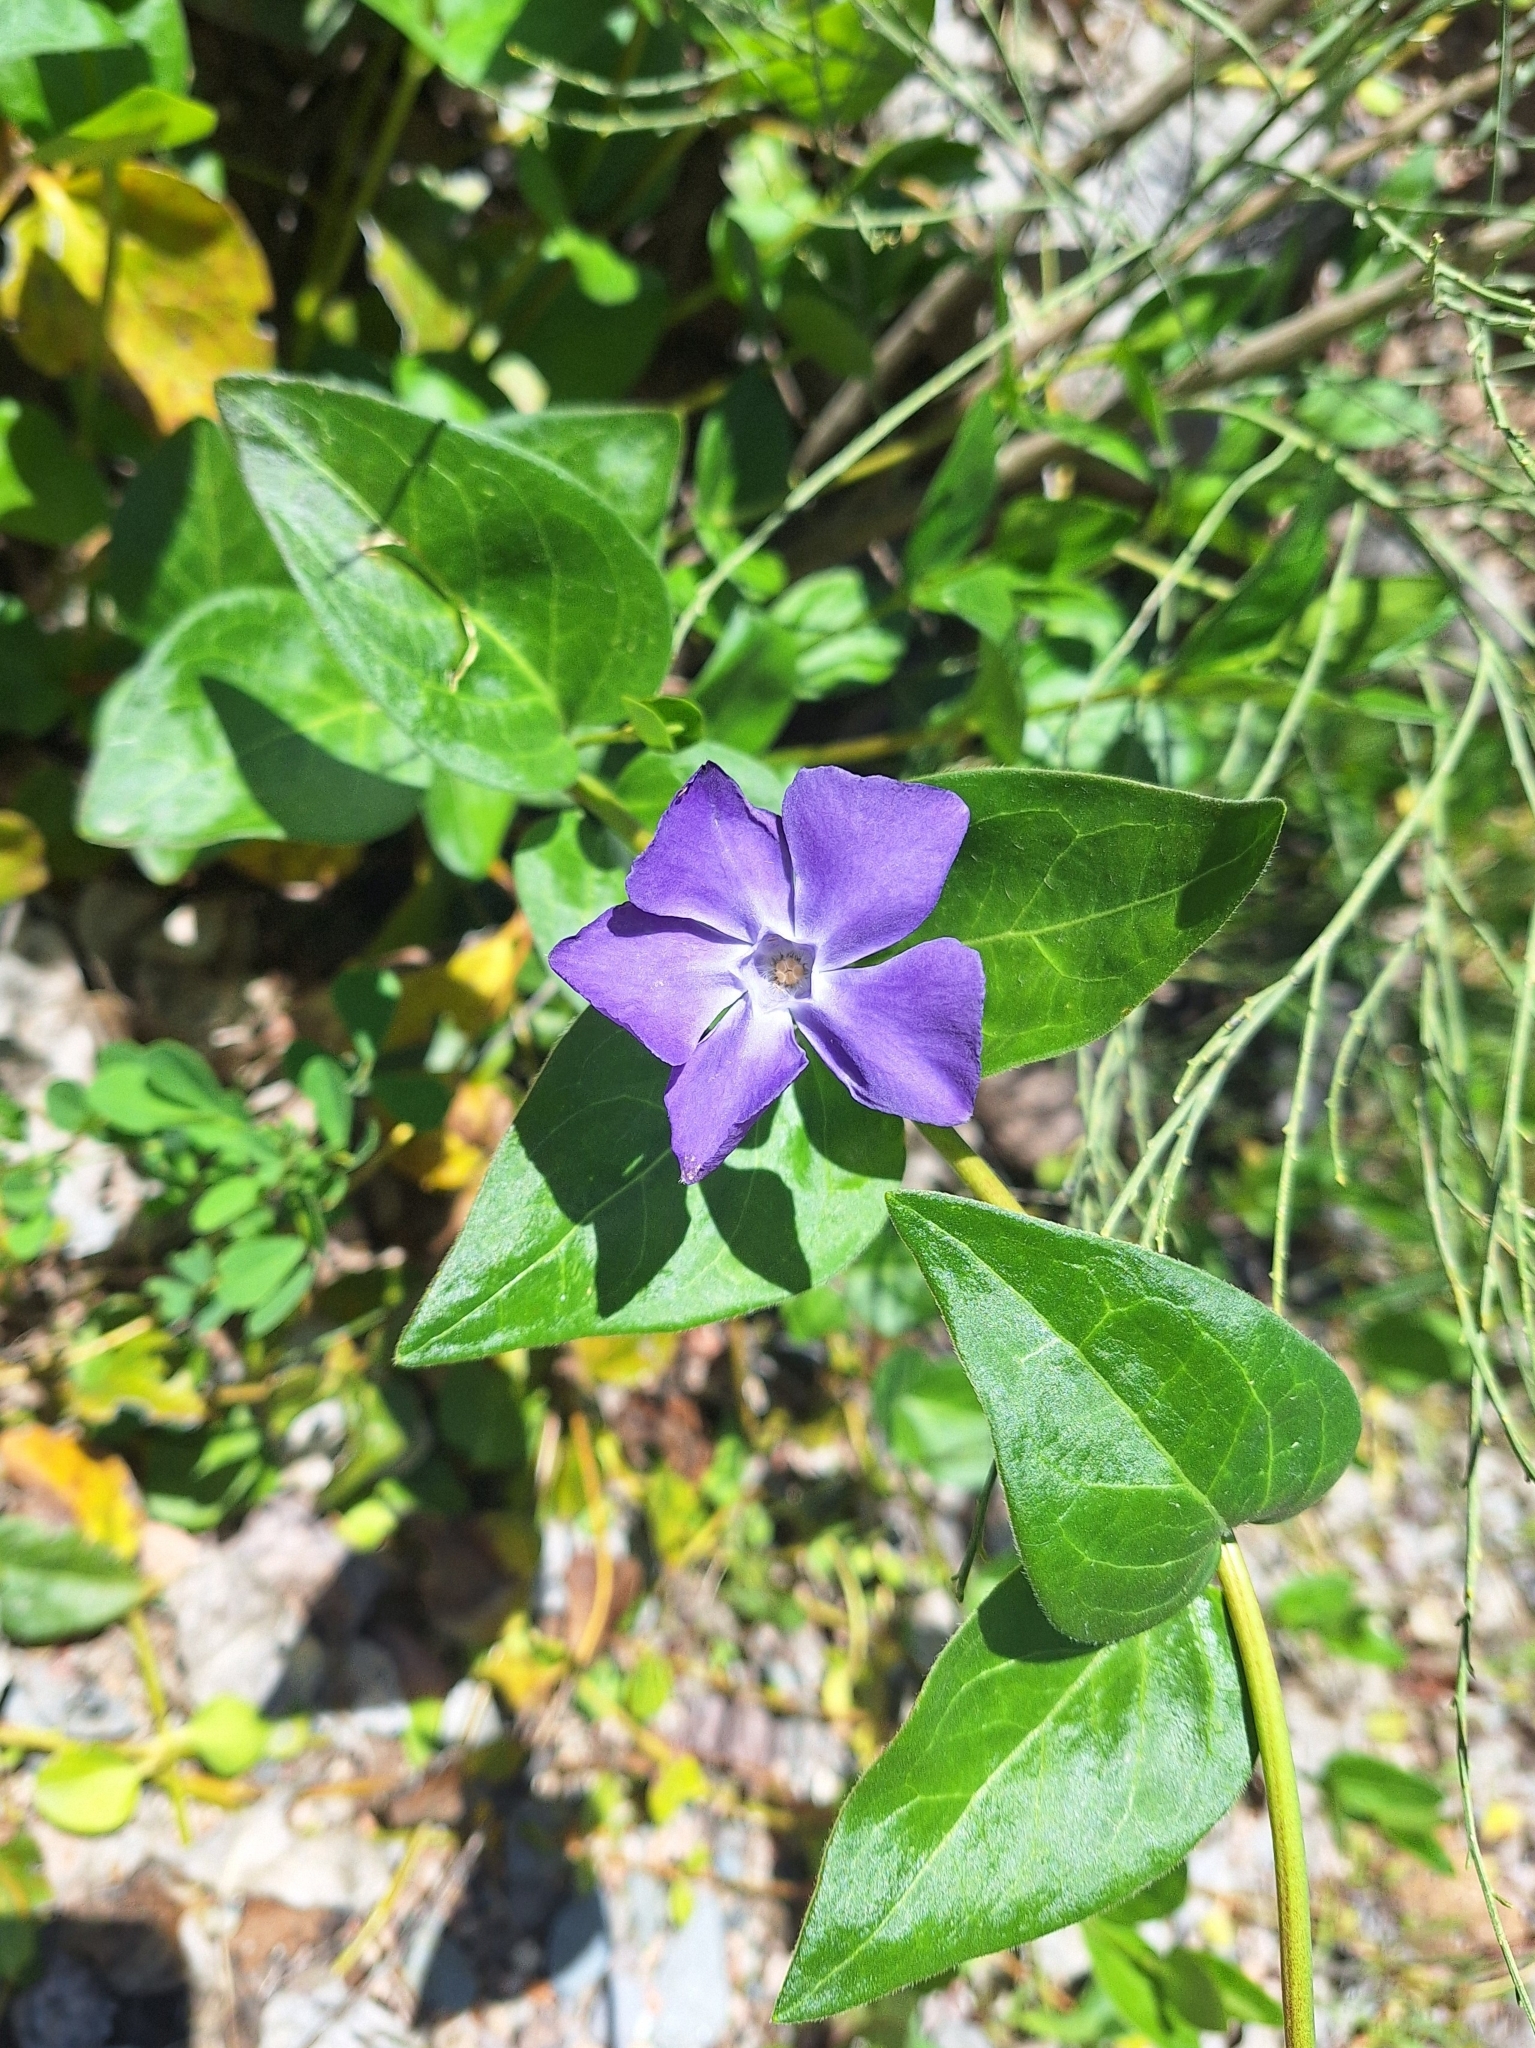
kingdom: Plantae
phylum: Tracheophyta
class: Magnoliopsida
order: Gentianales
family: Apocynaceae
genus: Vinca
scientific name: Vinca major
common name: Greater periwinkle
